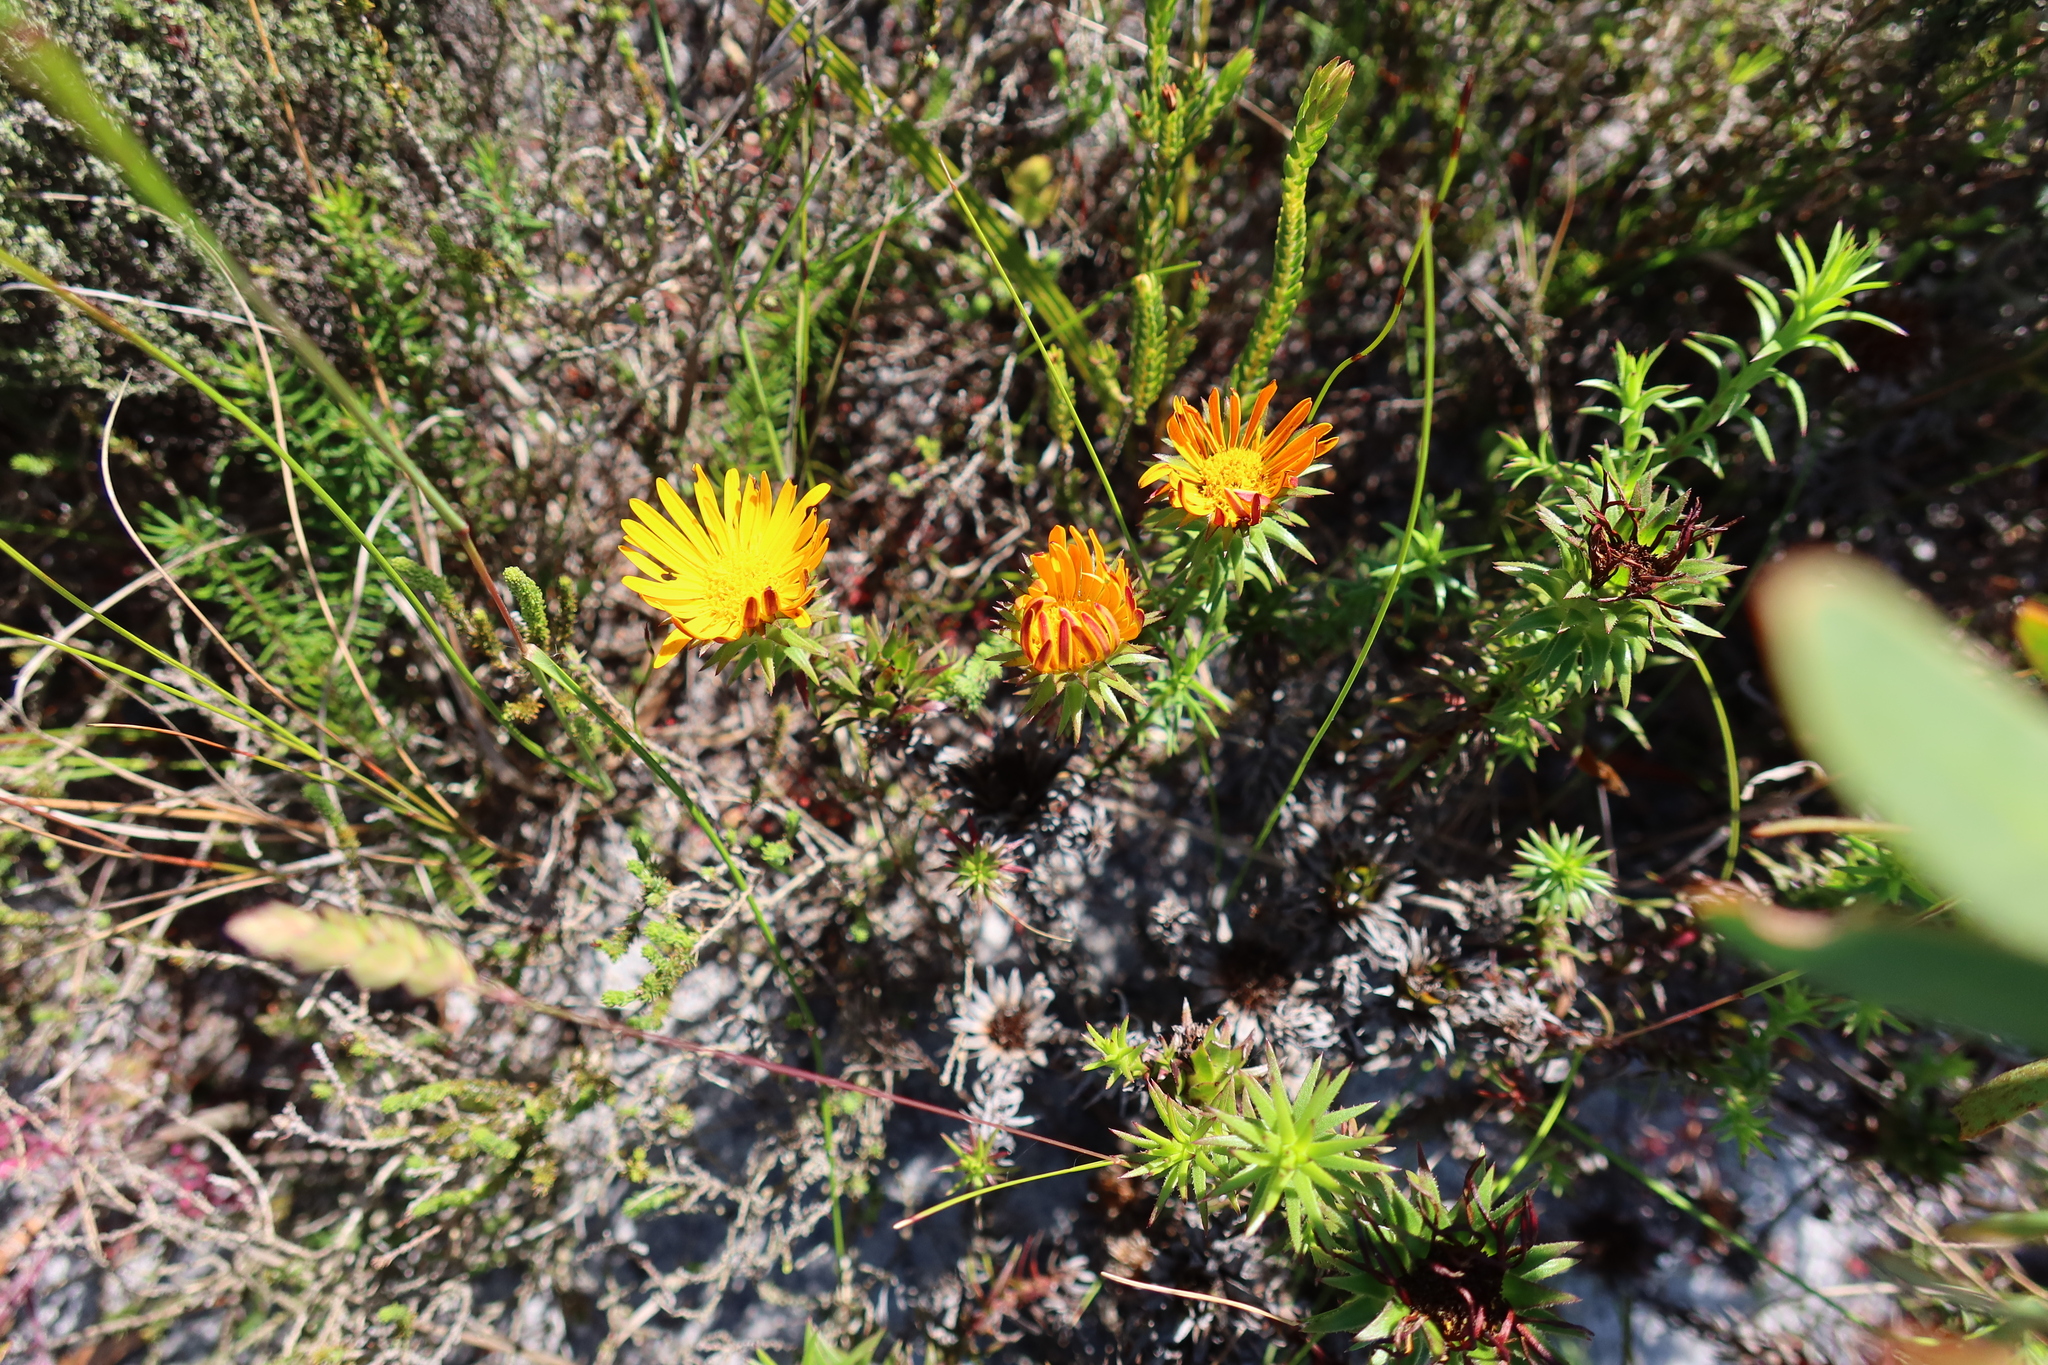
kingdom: Plantae
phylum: Tracheophyta
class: Magnoliopsida
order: Asterales
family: Asteraceae
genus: Oedera
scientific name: Oedera imbricata
